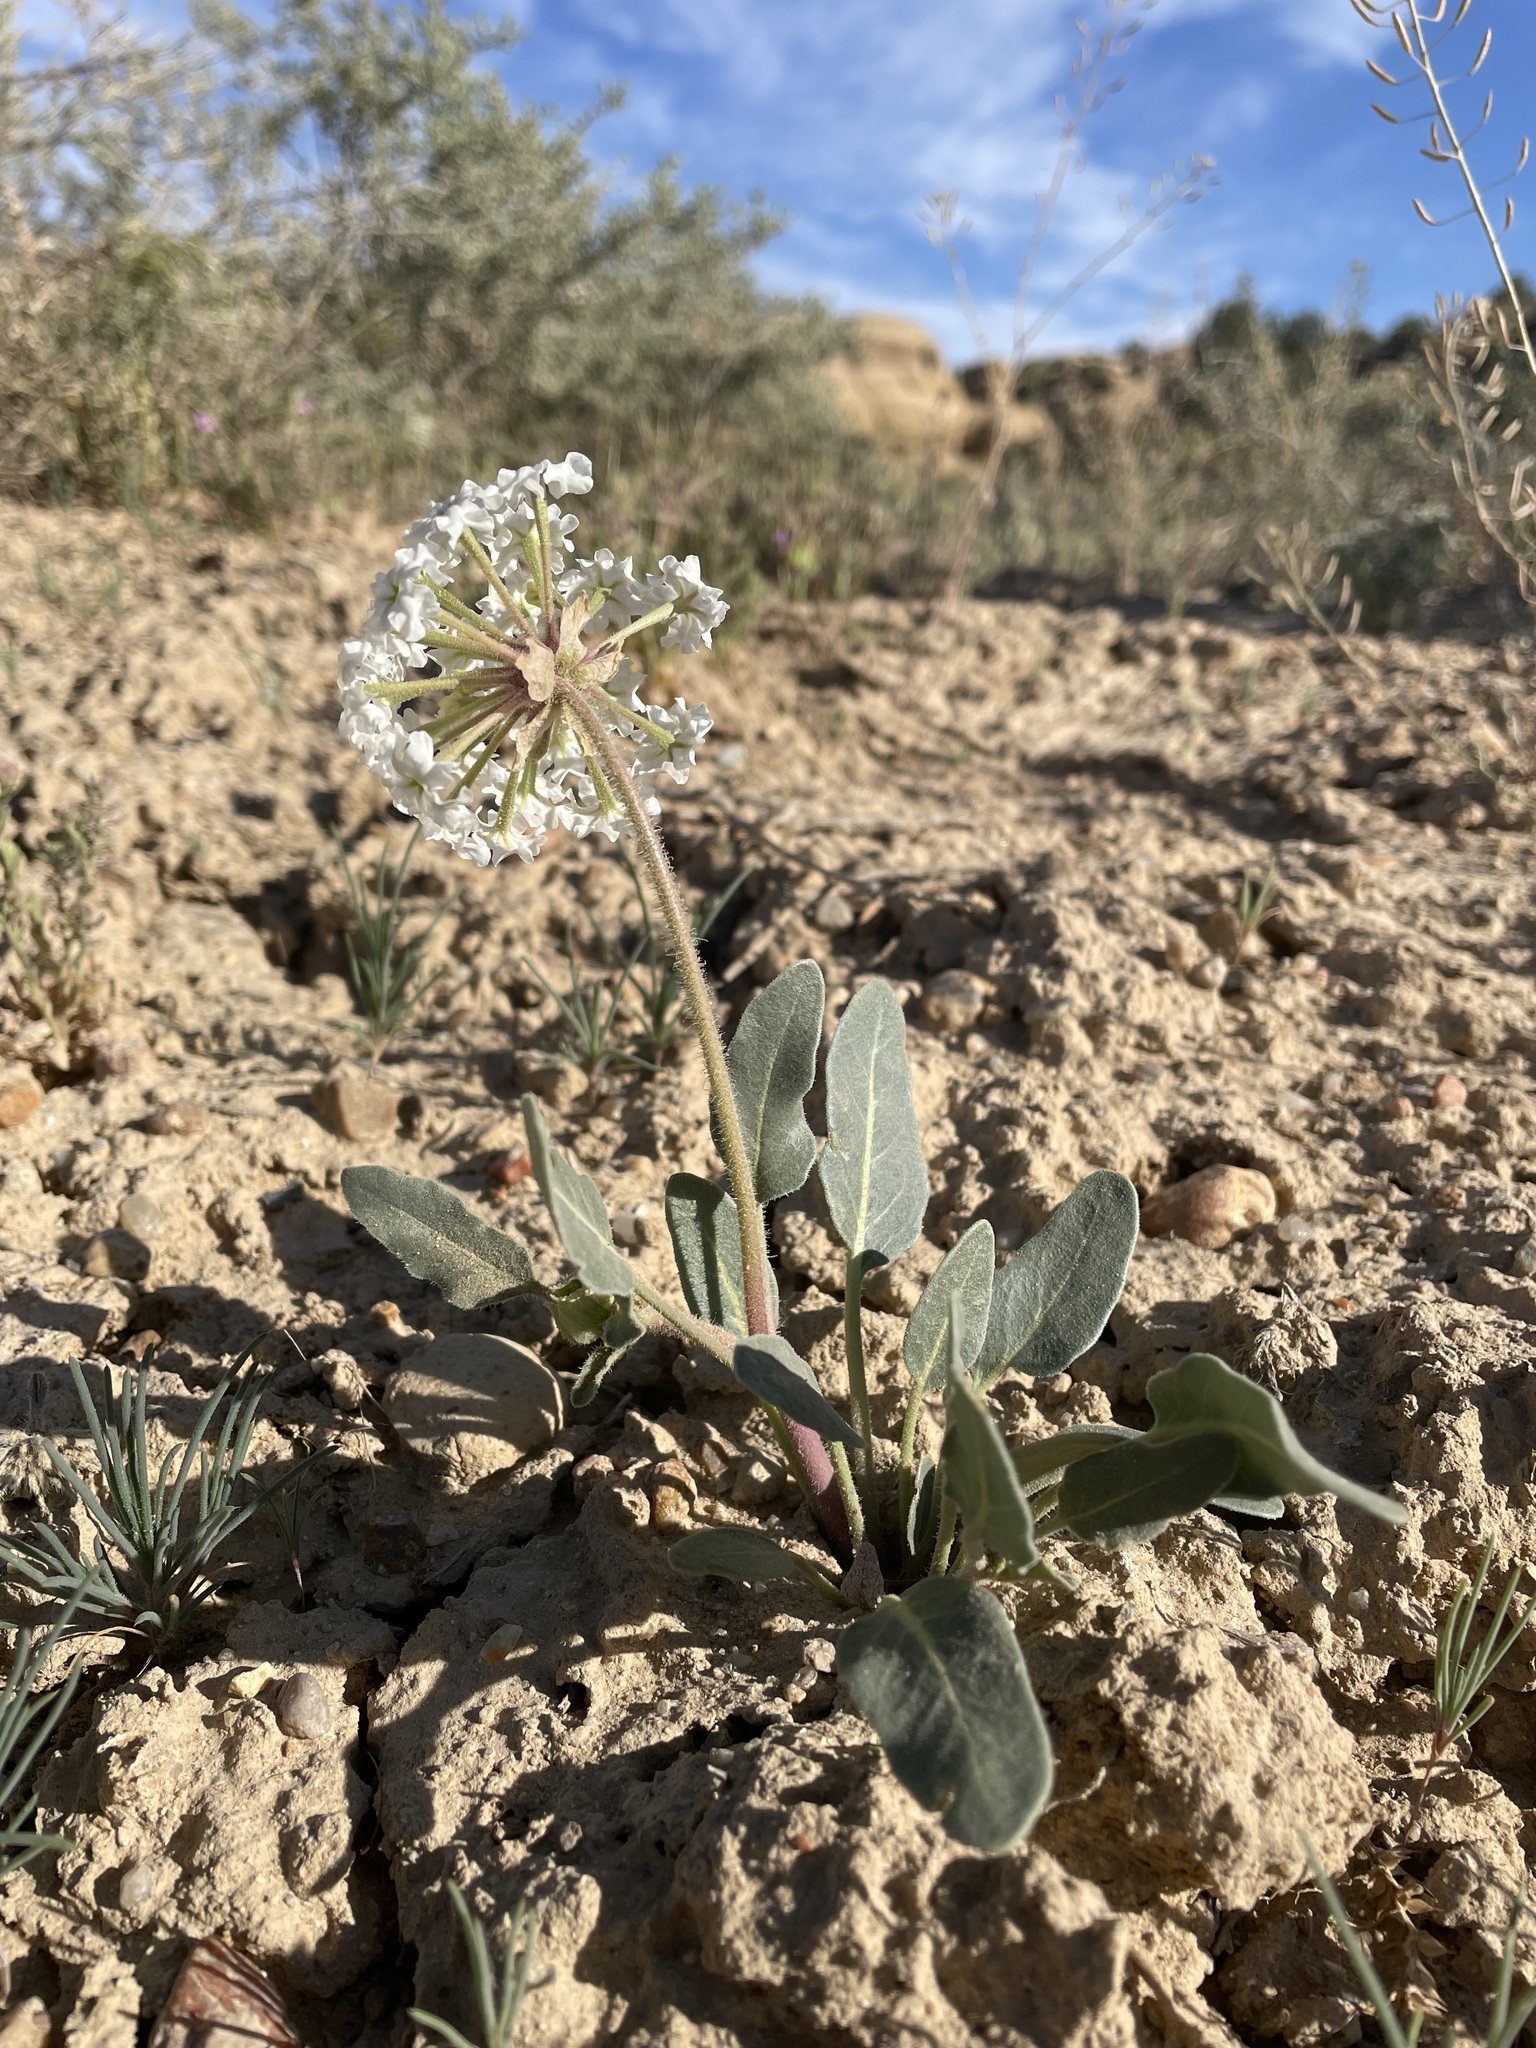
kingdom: Plantae
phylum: Tracheophyta
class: Magnoliopsida
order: Caryophyllales
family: Nyctaginaceae
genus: Abronia
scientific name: Abronia fragrans
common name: Fragrant sand-verbena
